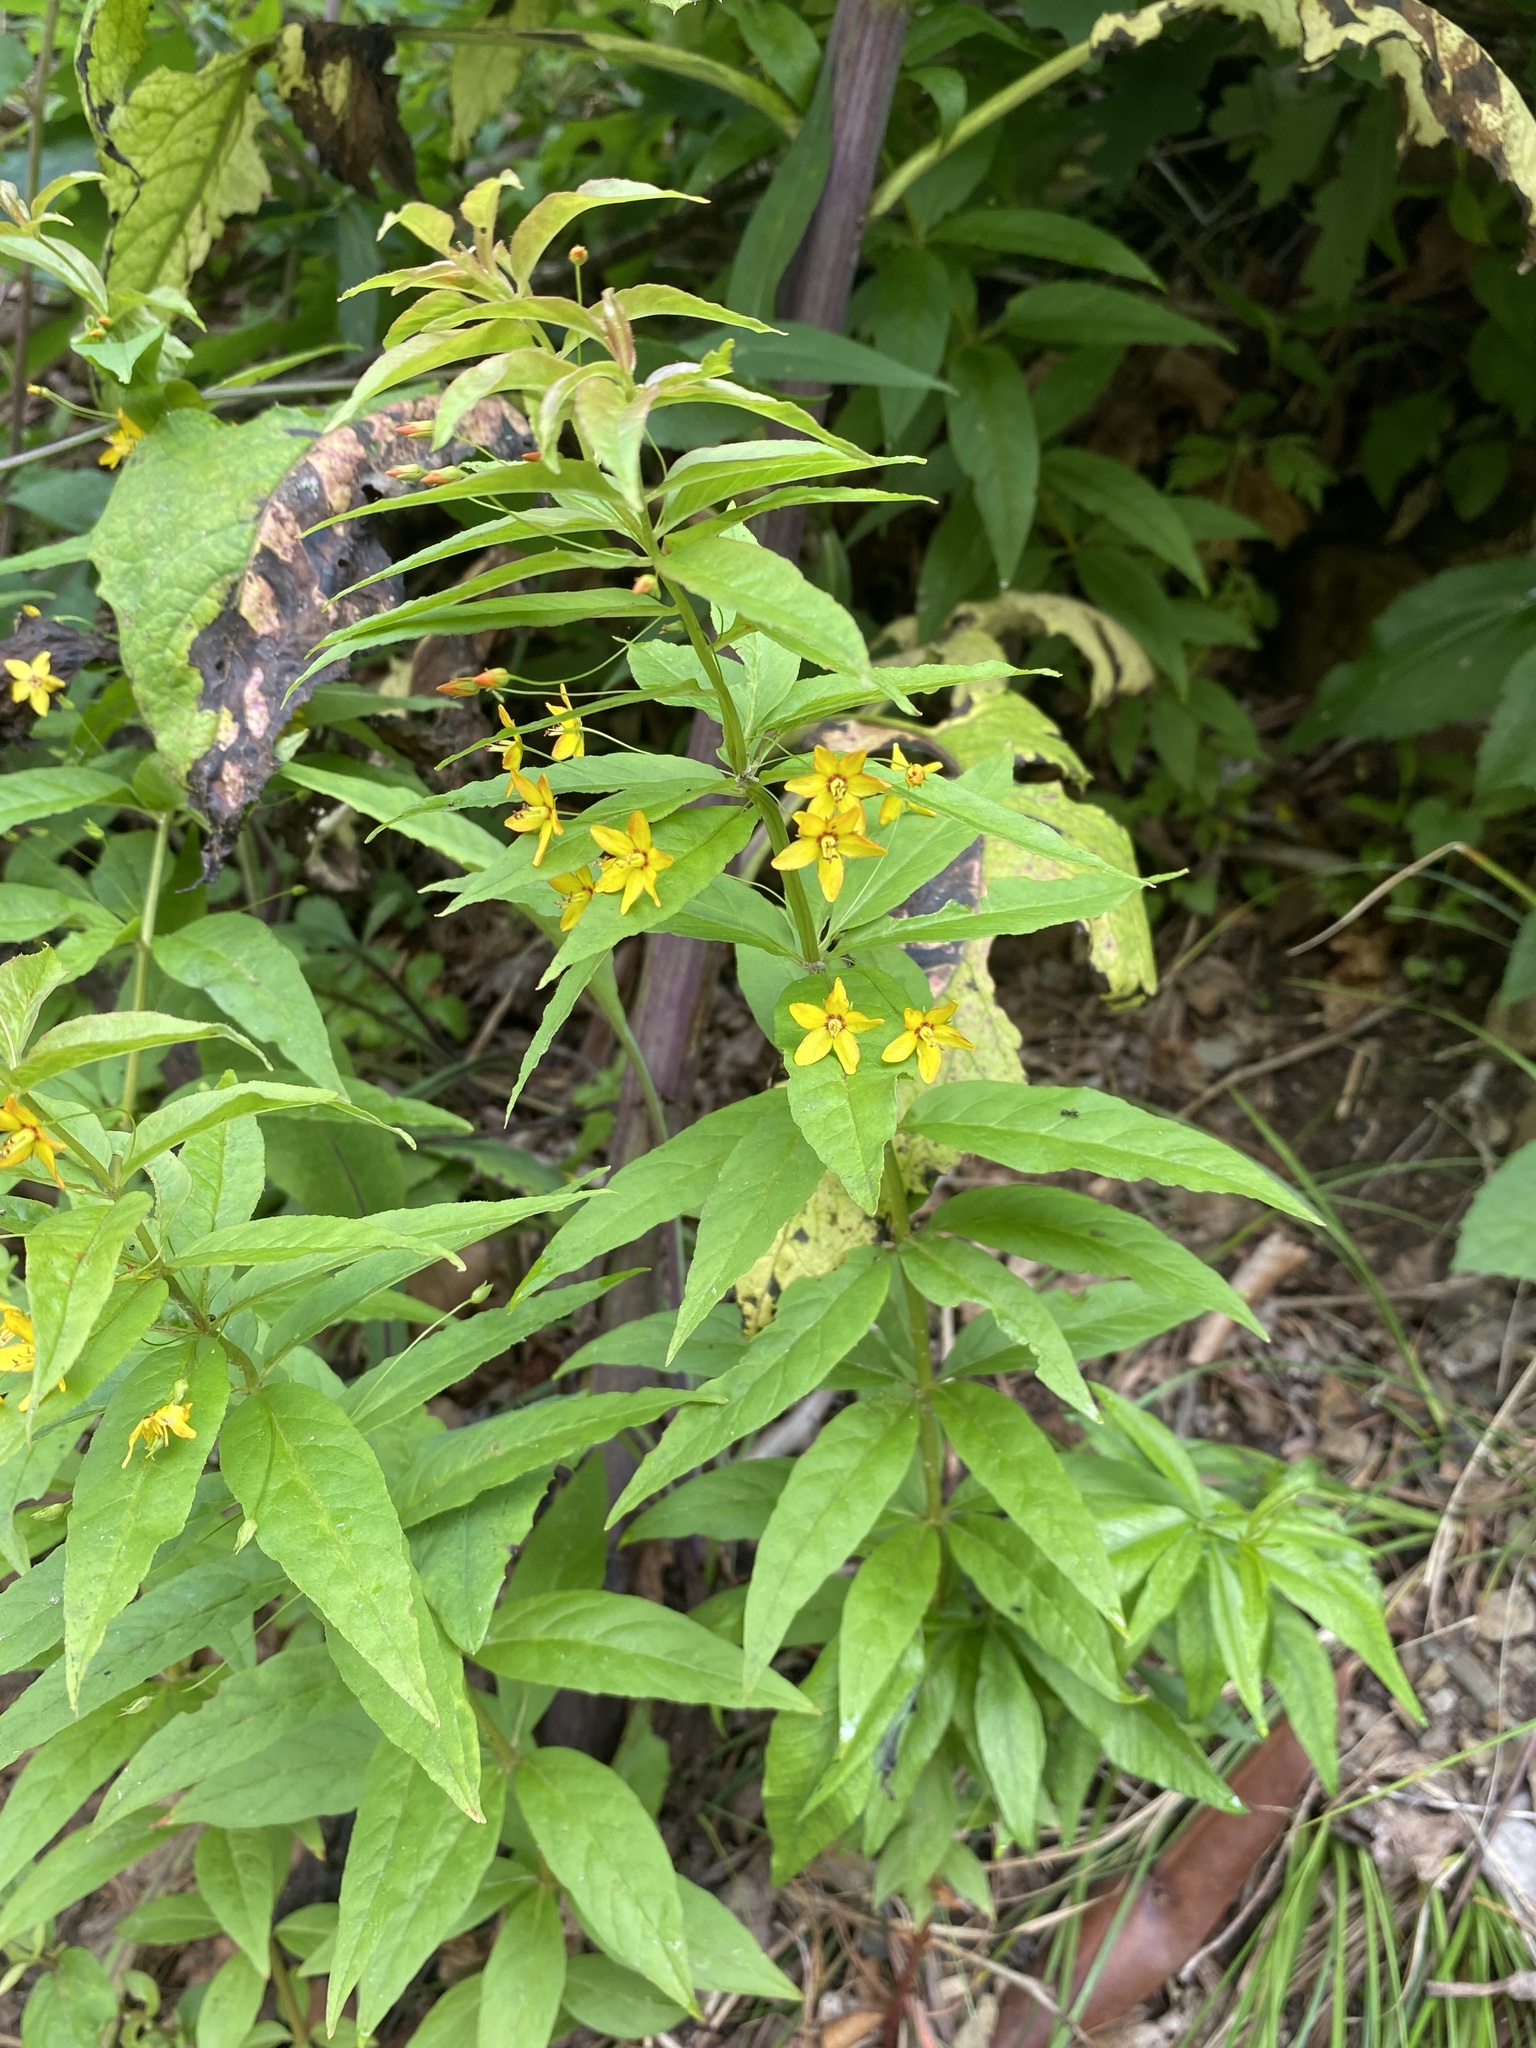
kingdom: Plantae
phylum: Tracheophyta
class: Magnoliopsida
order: Ericales
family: Primulaceae
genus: Lysimachia
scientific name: Lysimachia quadrifolia
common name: Whorled loosestrife
